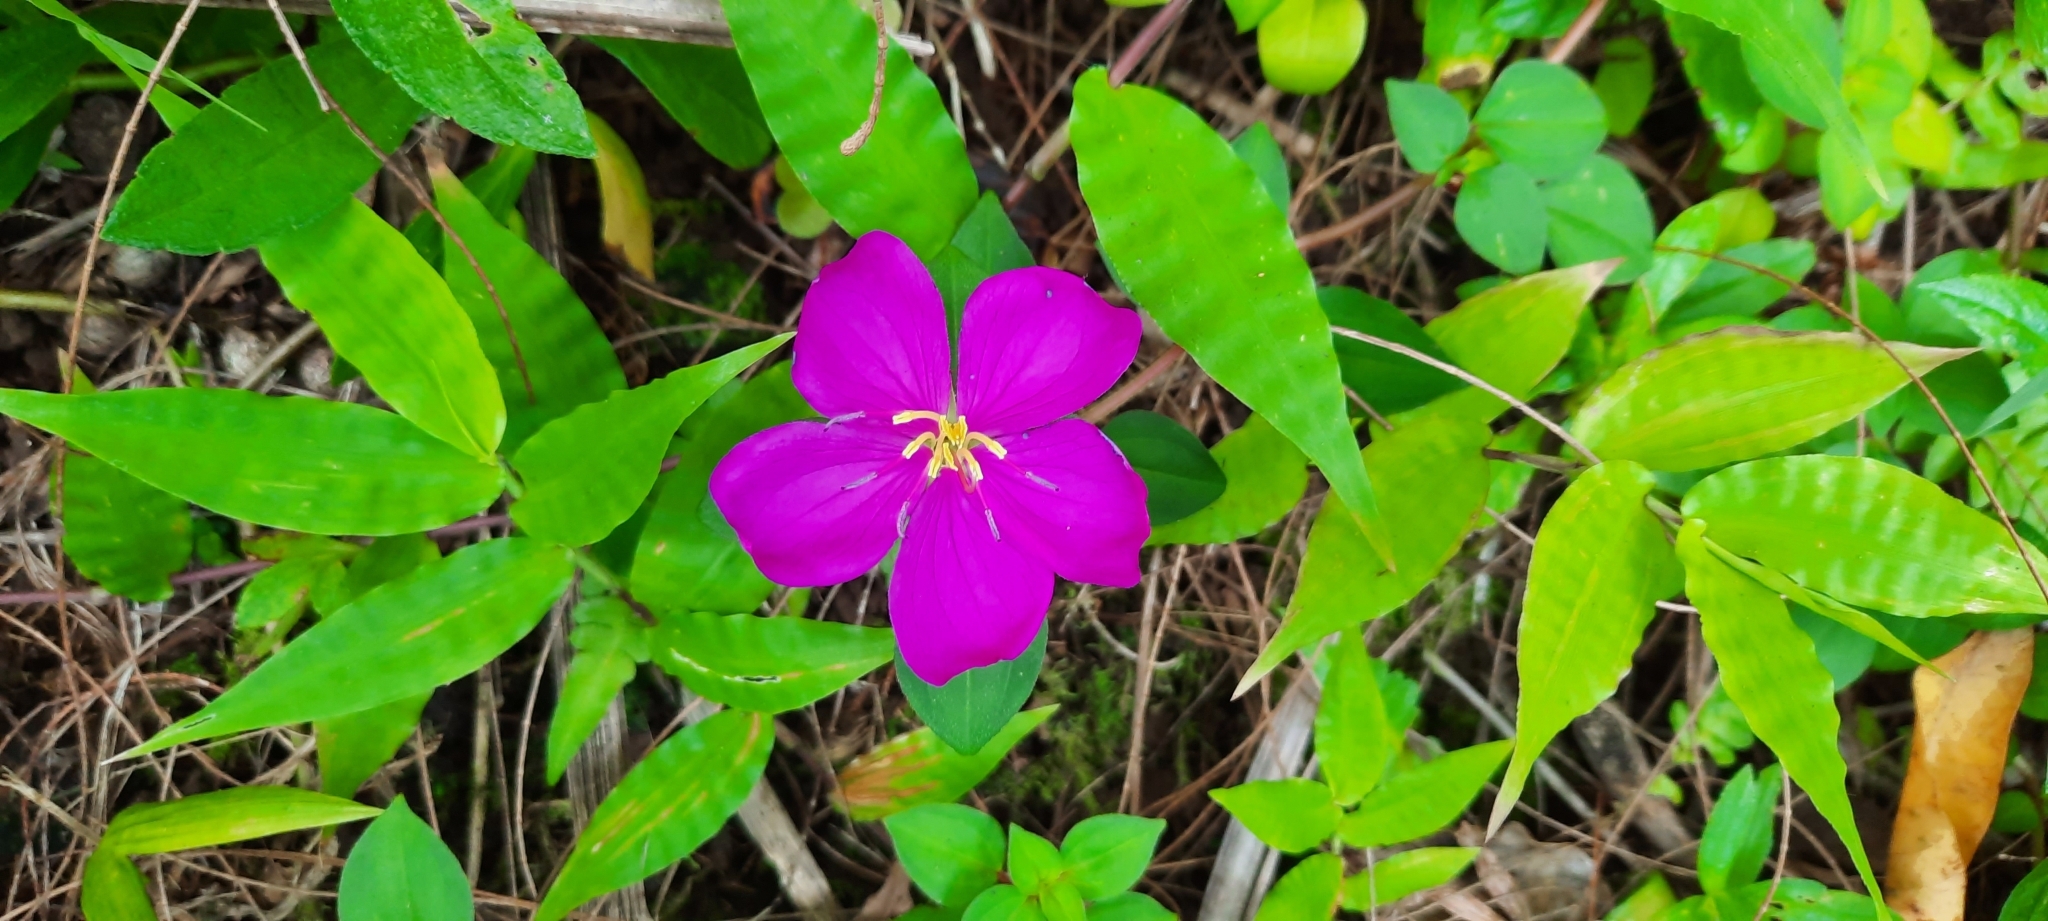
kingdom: Plantae
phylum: Tracheophyta
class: Magnoliopsida
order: Myrtales
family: Melastomataceae
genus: Heterotis
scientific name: Heterotis rotundifolia
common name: Pinklady
